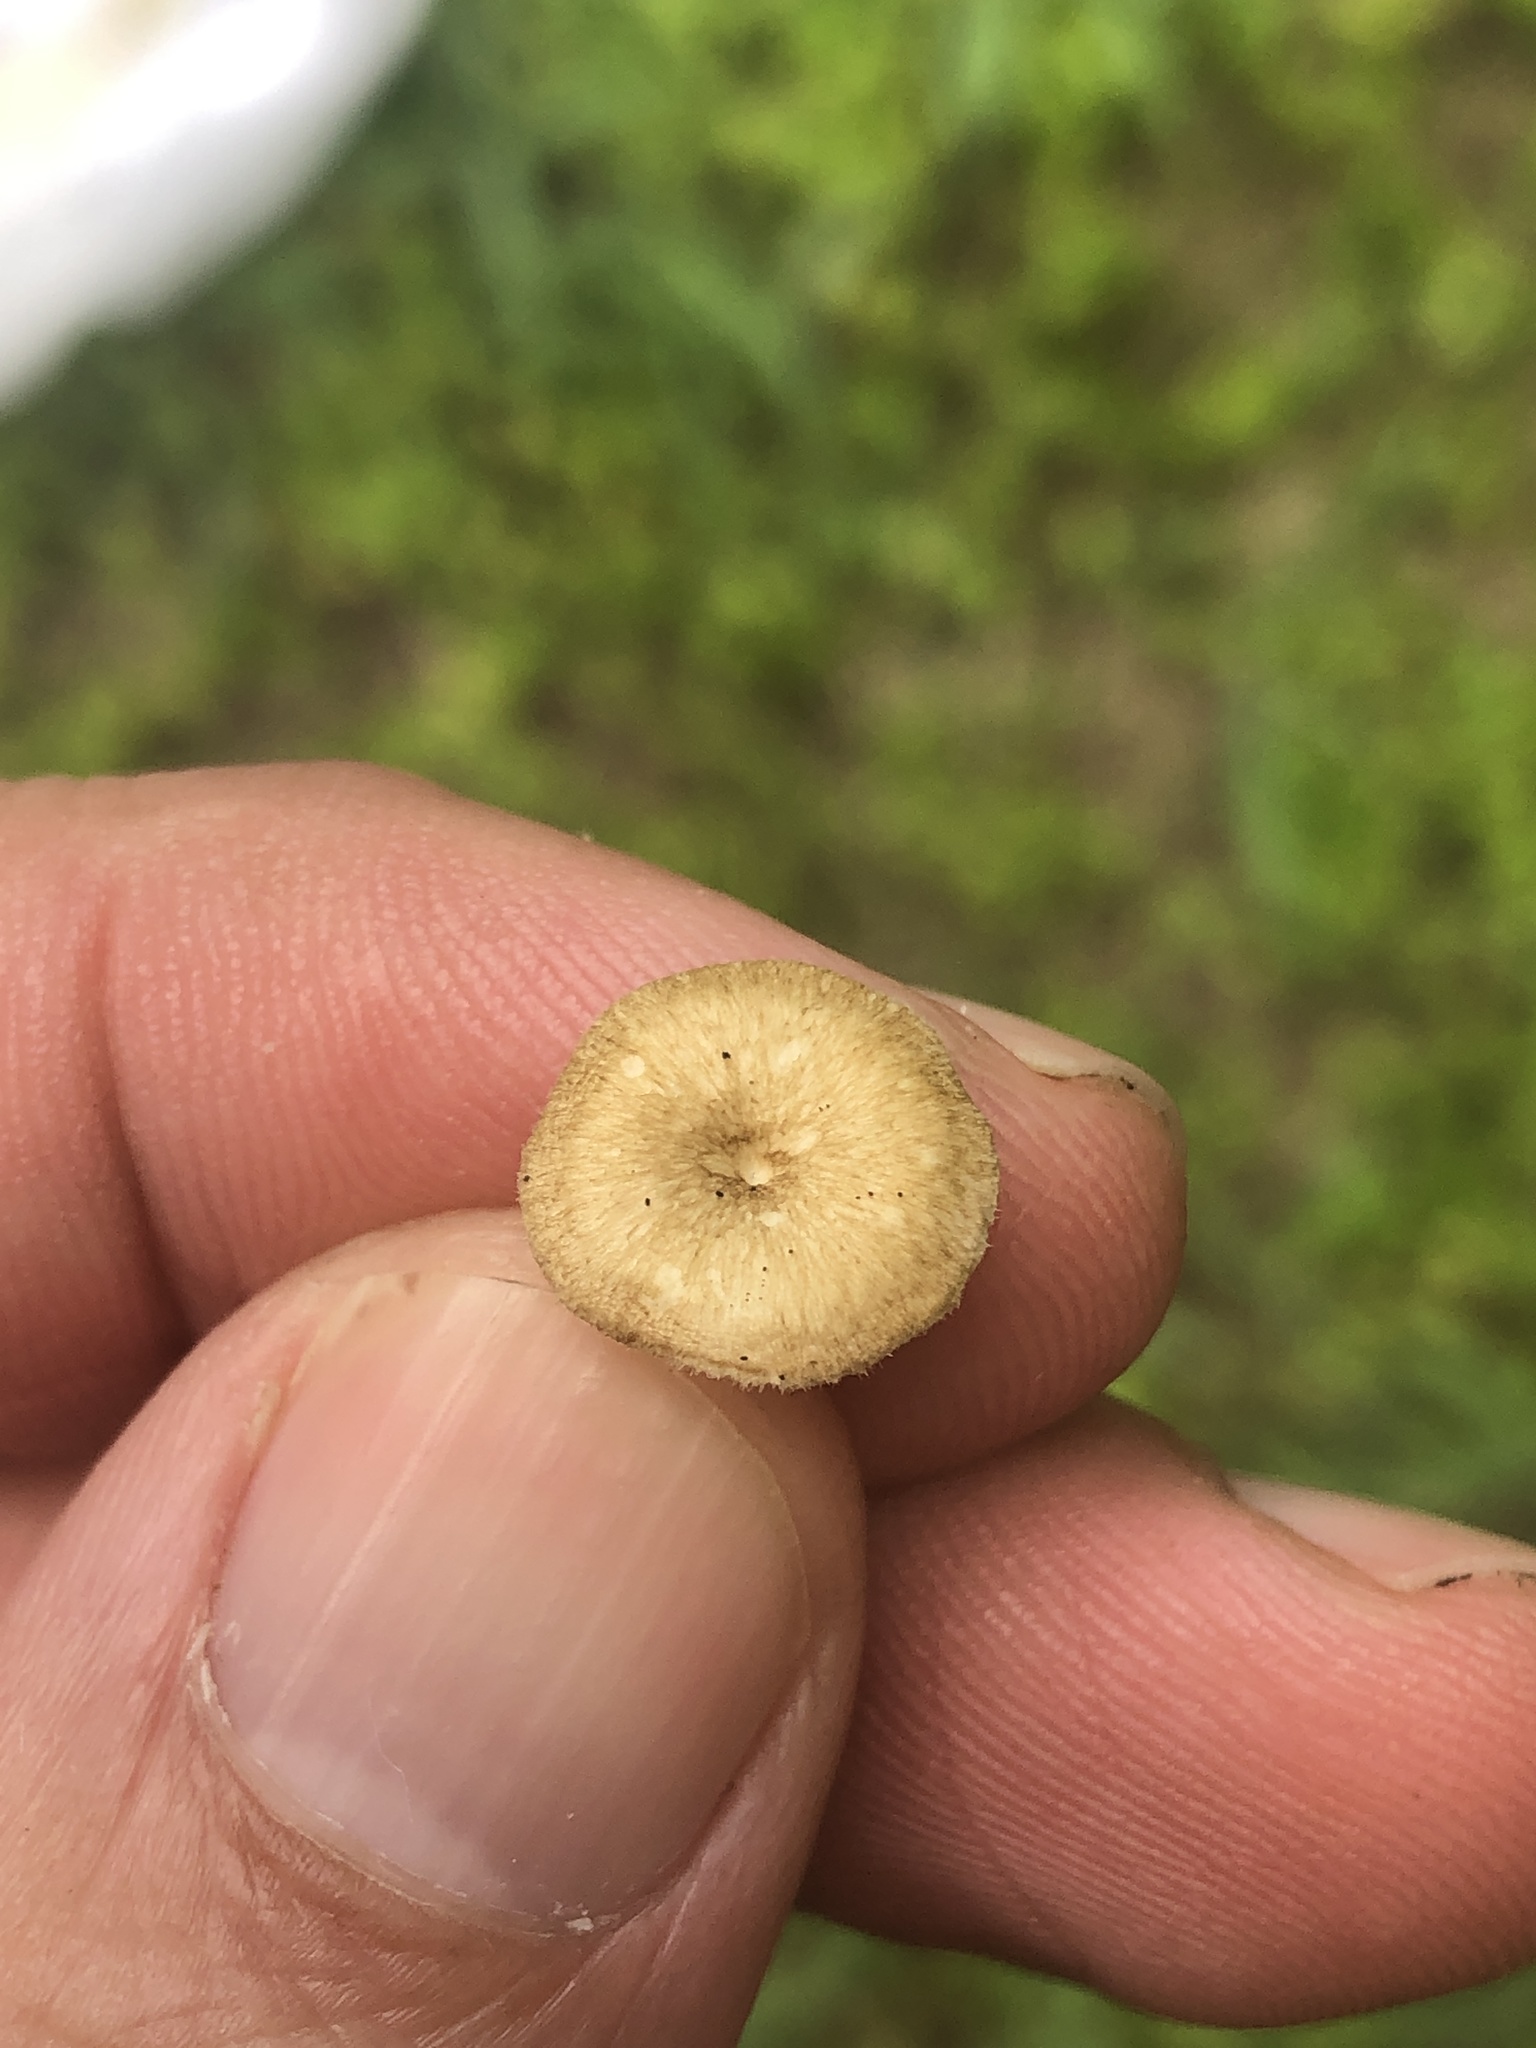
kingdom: Fungi
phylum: Basidiomycota
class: Agaricomycetes
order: Polyporales
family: Polyporaceae
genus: Lentinus
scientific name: Lentinus arcularius
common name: Spring polypore
